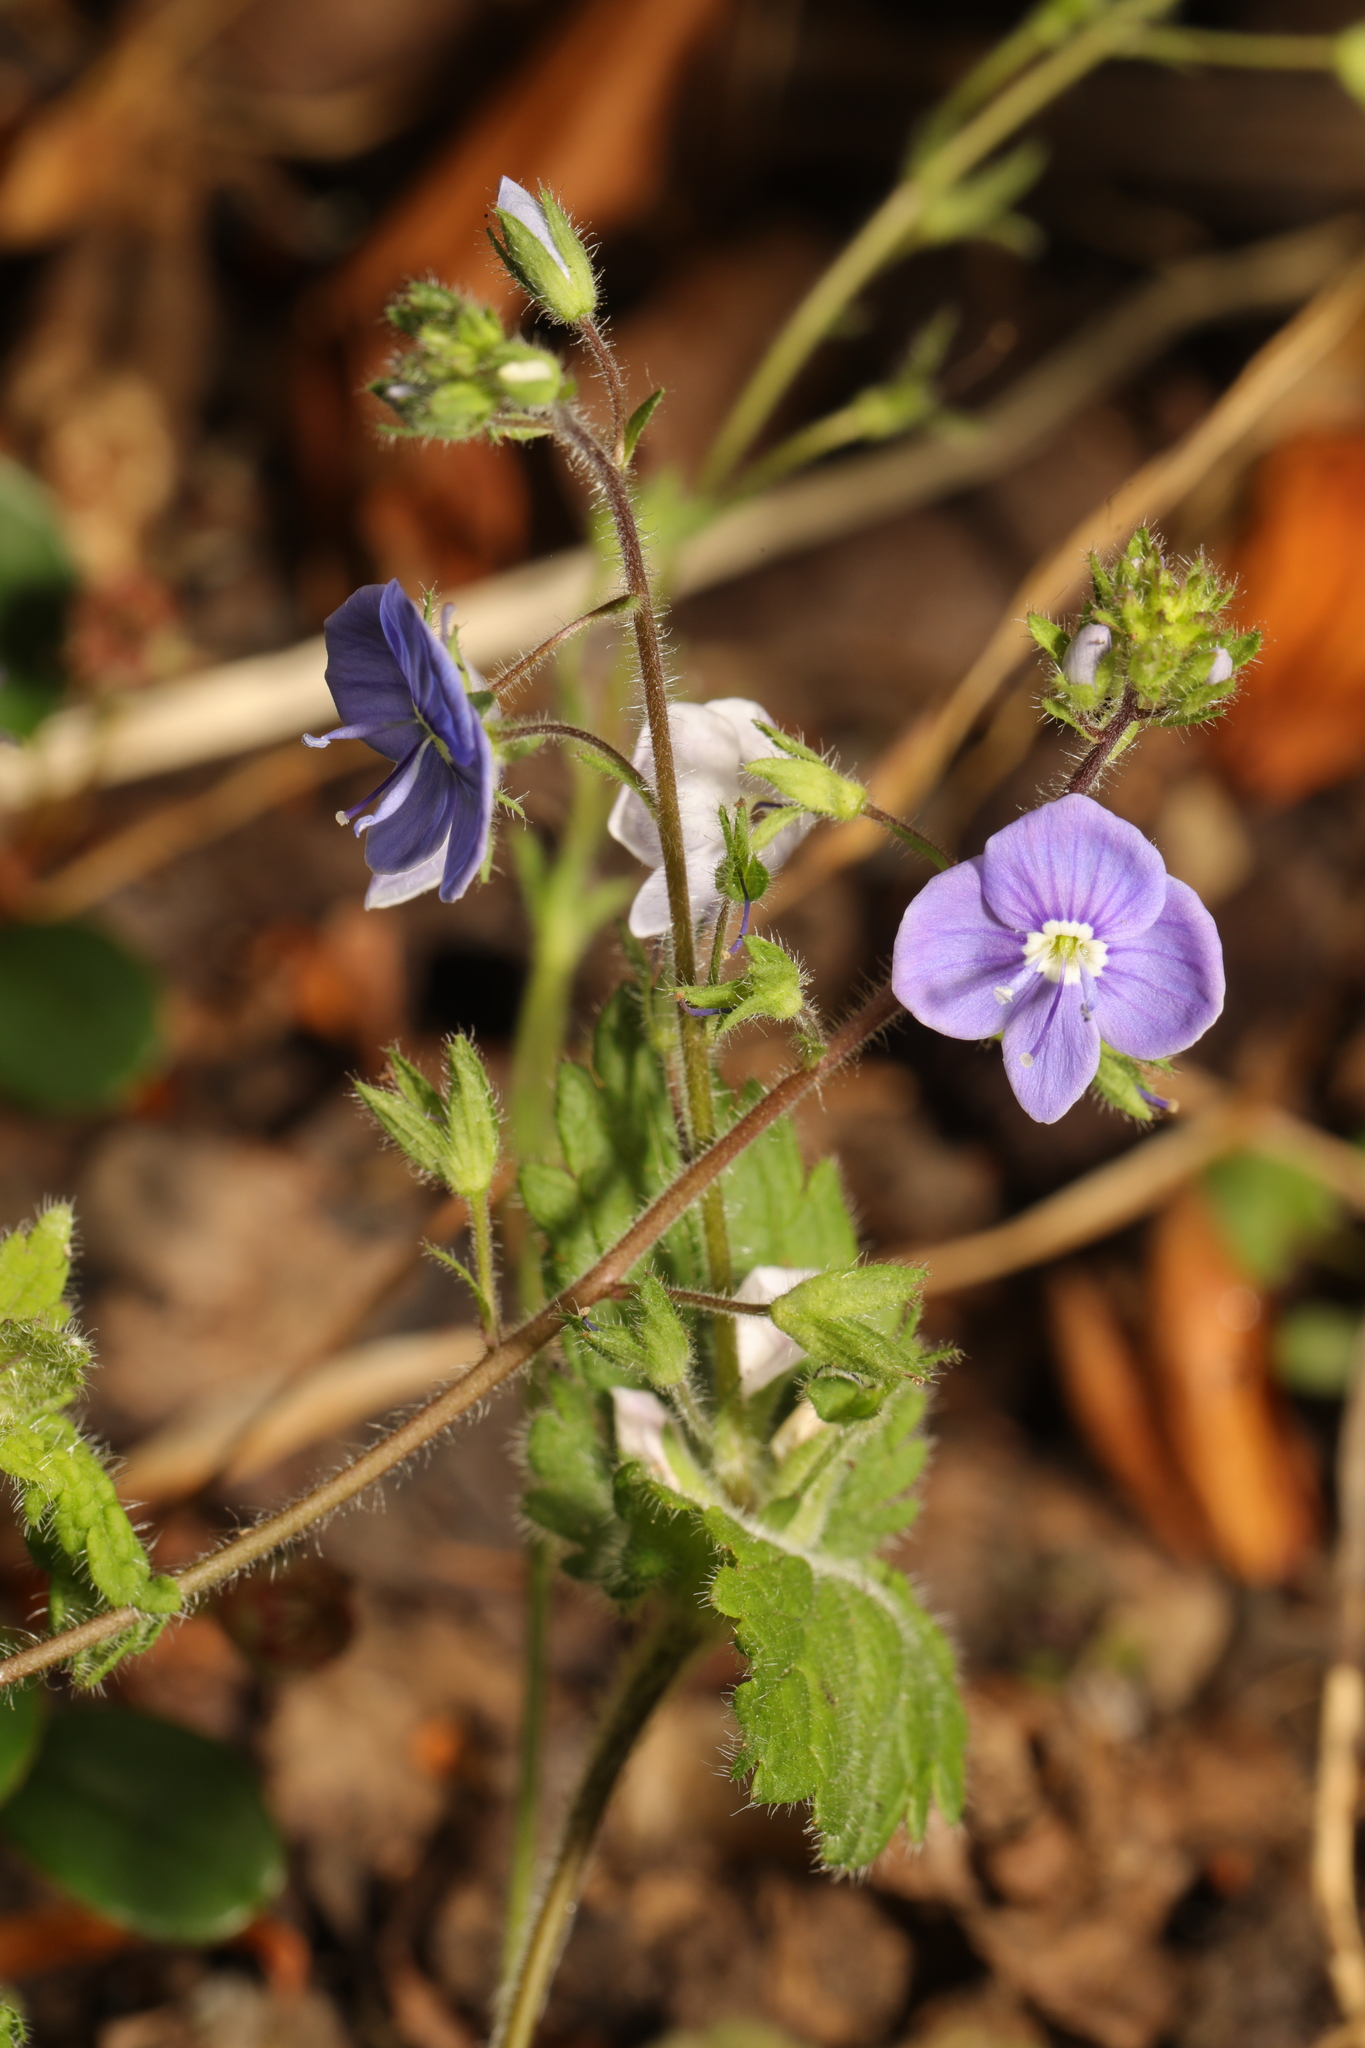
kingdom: Plantae
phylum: Tracheophyta
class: Magnoliopsida
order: Lamiales
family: Plantaginaceae
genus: Veronica
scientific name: Veronica chamaedrys
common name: Germander speedwell
